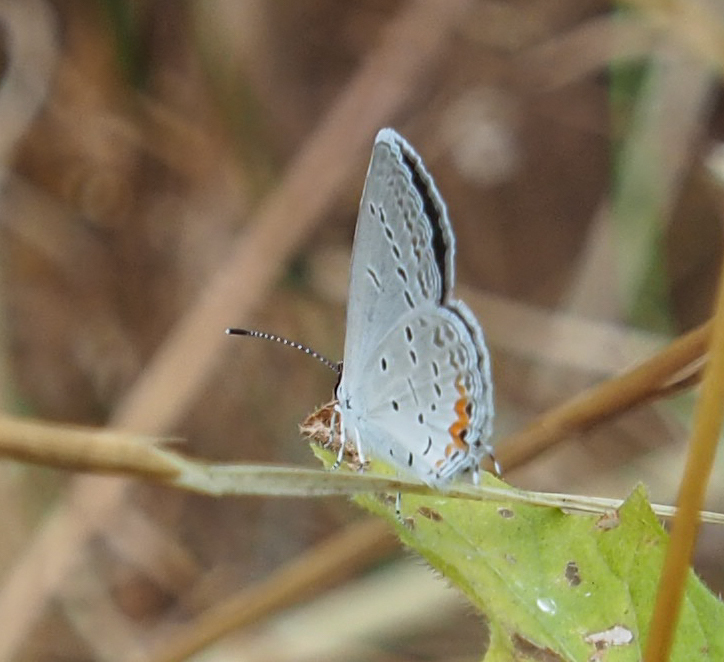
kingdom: Animalia
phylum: Arthropoda
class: Insecta
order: Lepidoptera
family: Lycaenidae
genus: Elkalyce
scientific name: Elkalyce comyntas
